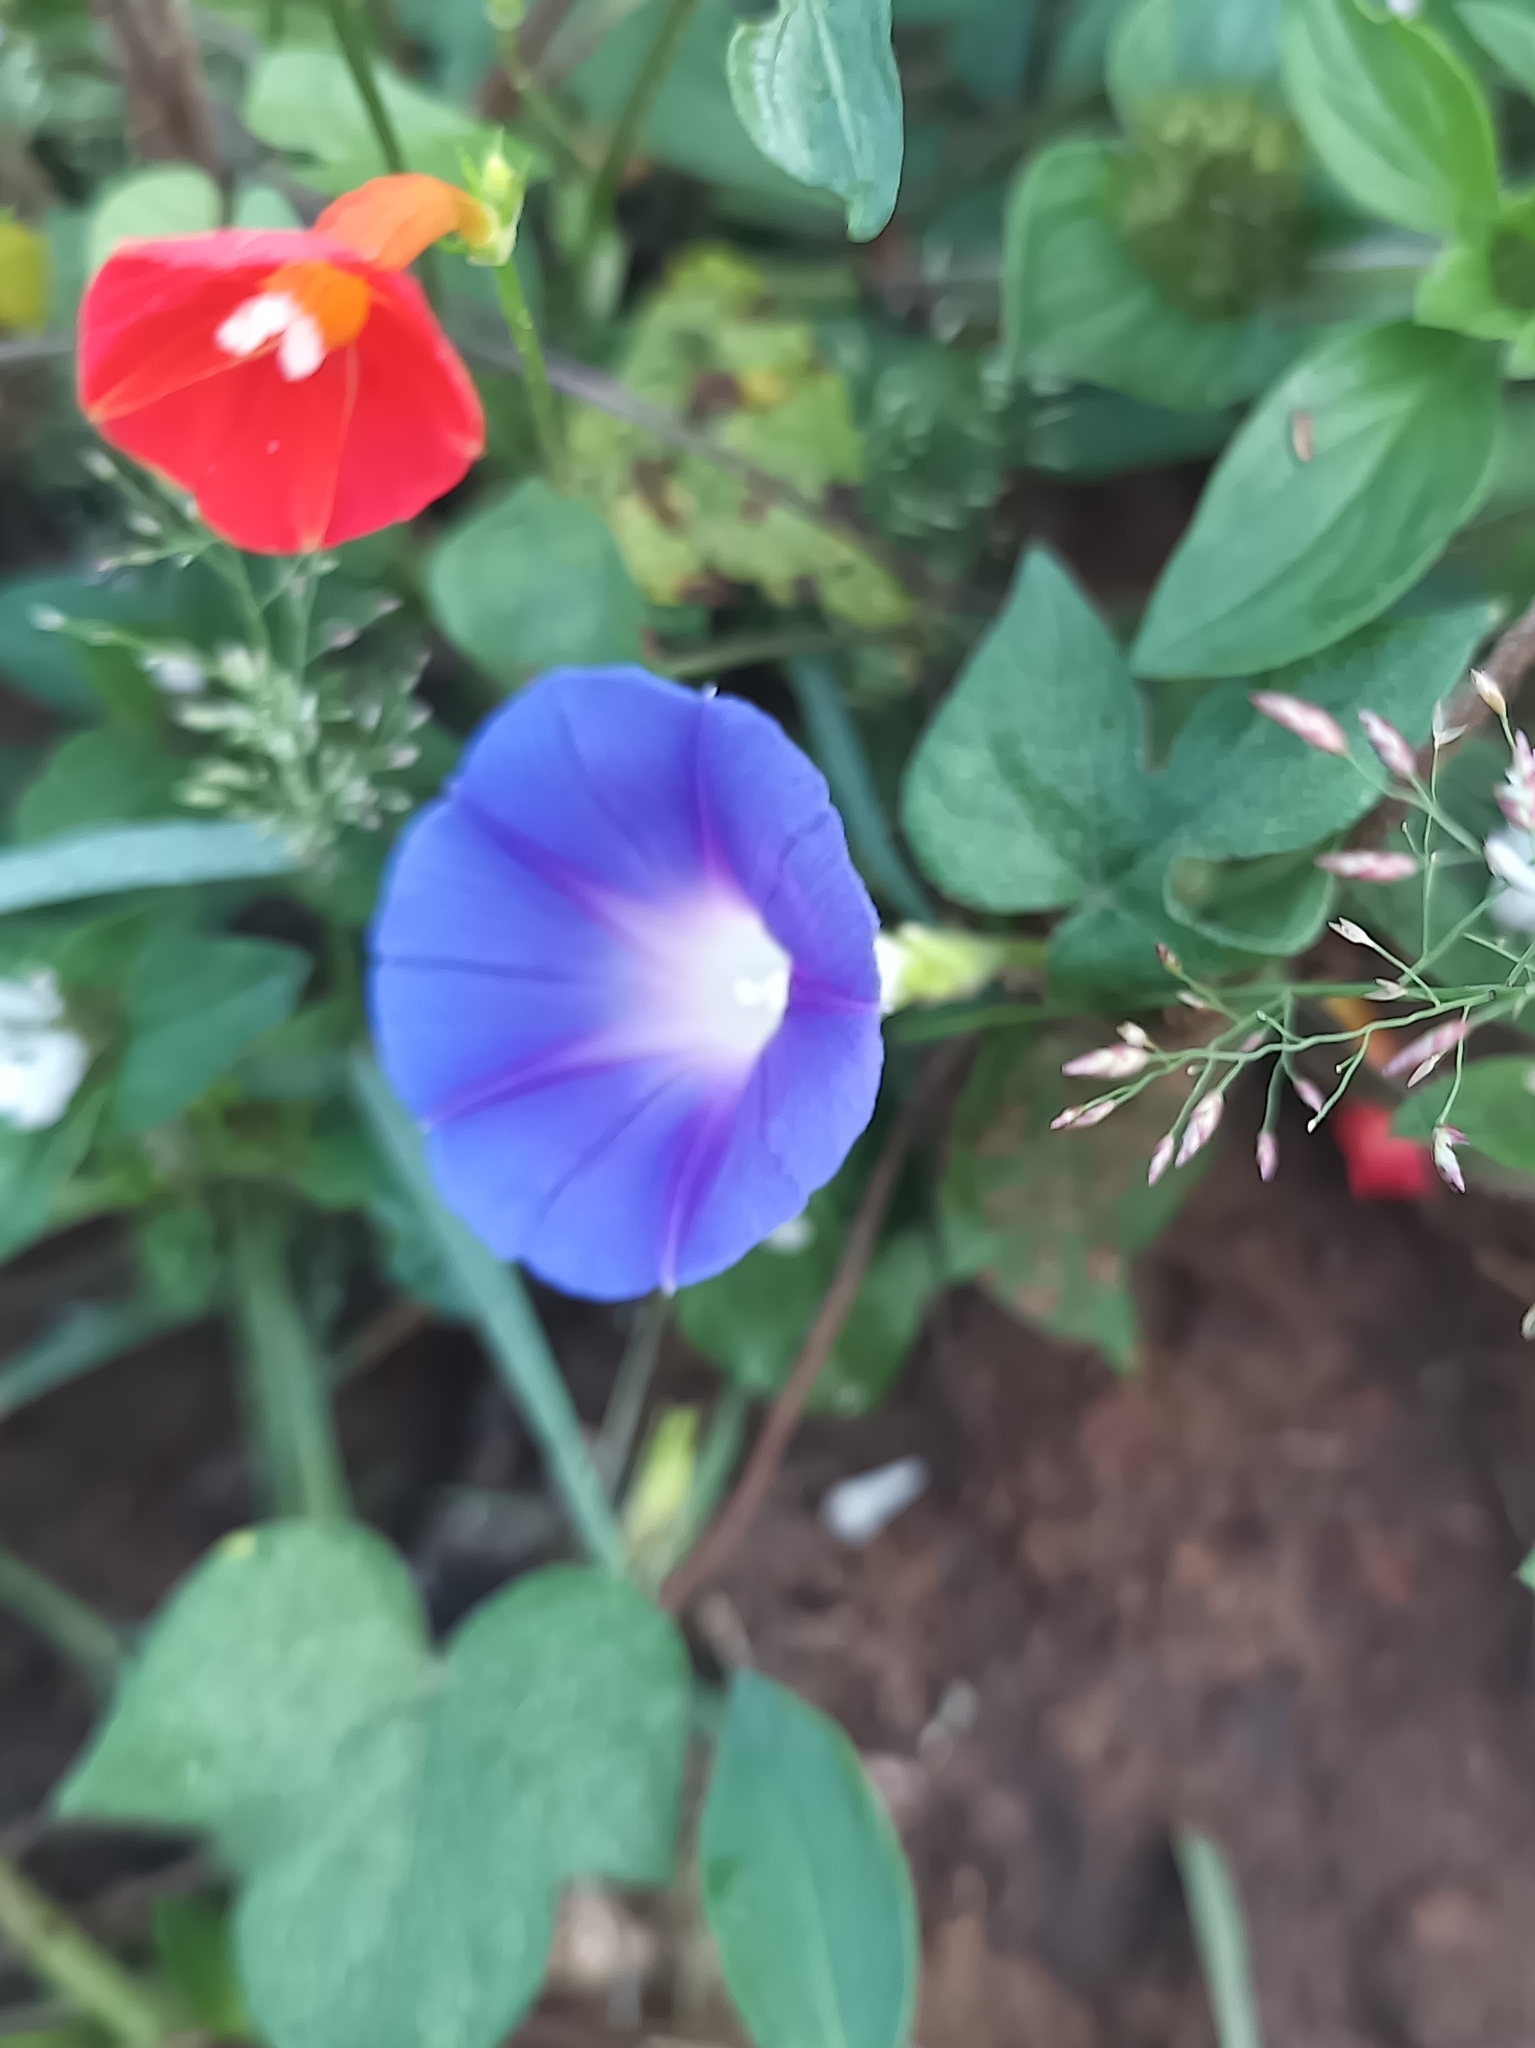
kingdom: Plantae
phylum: Tracheophyta
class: Magnoliopsida
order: Solanales
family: Convolvulaceae
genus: Ipomoea
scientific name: Ipomoea purpurea
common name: Common morning-glory
